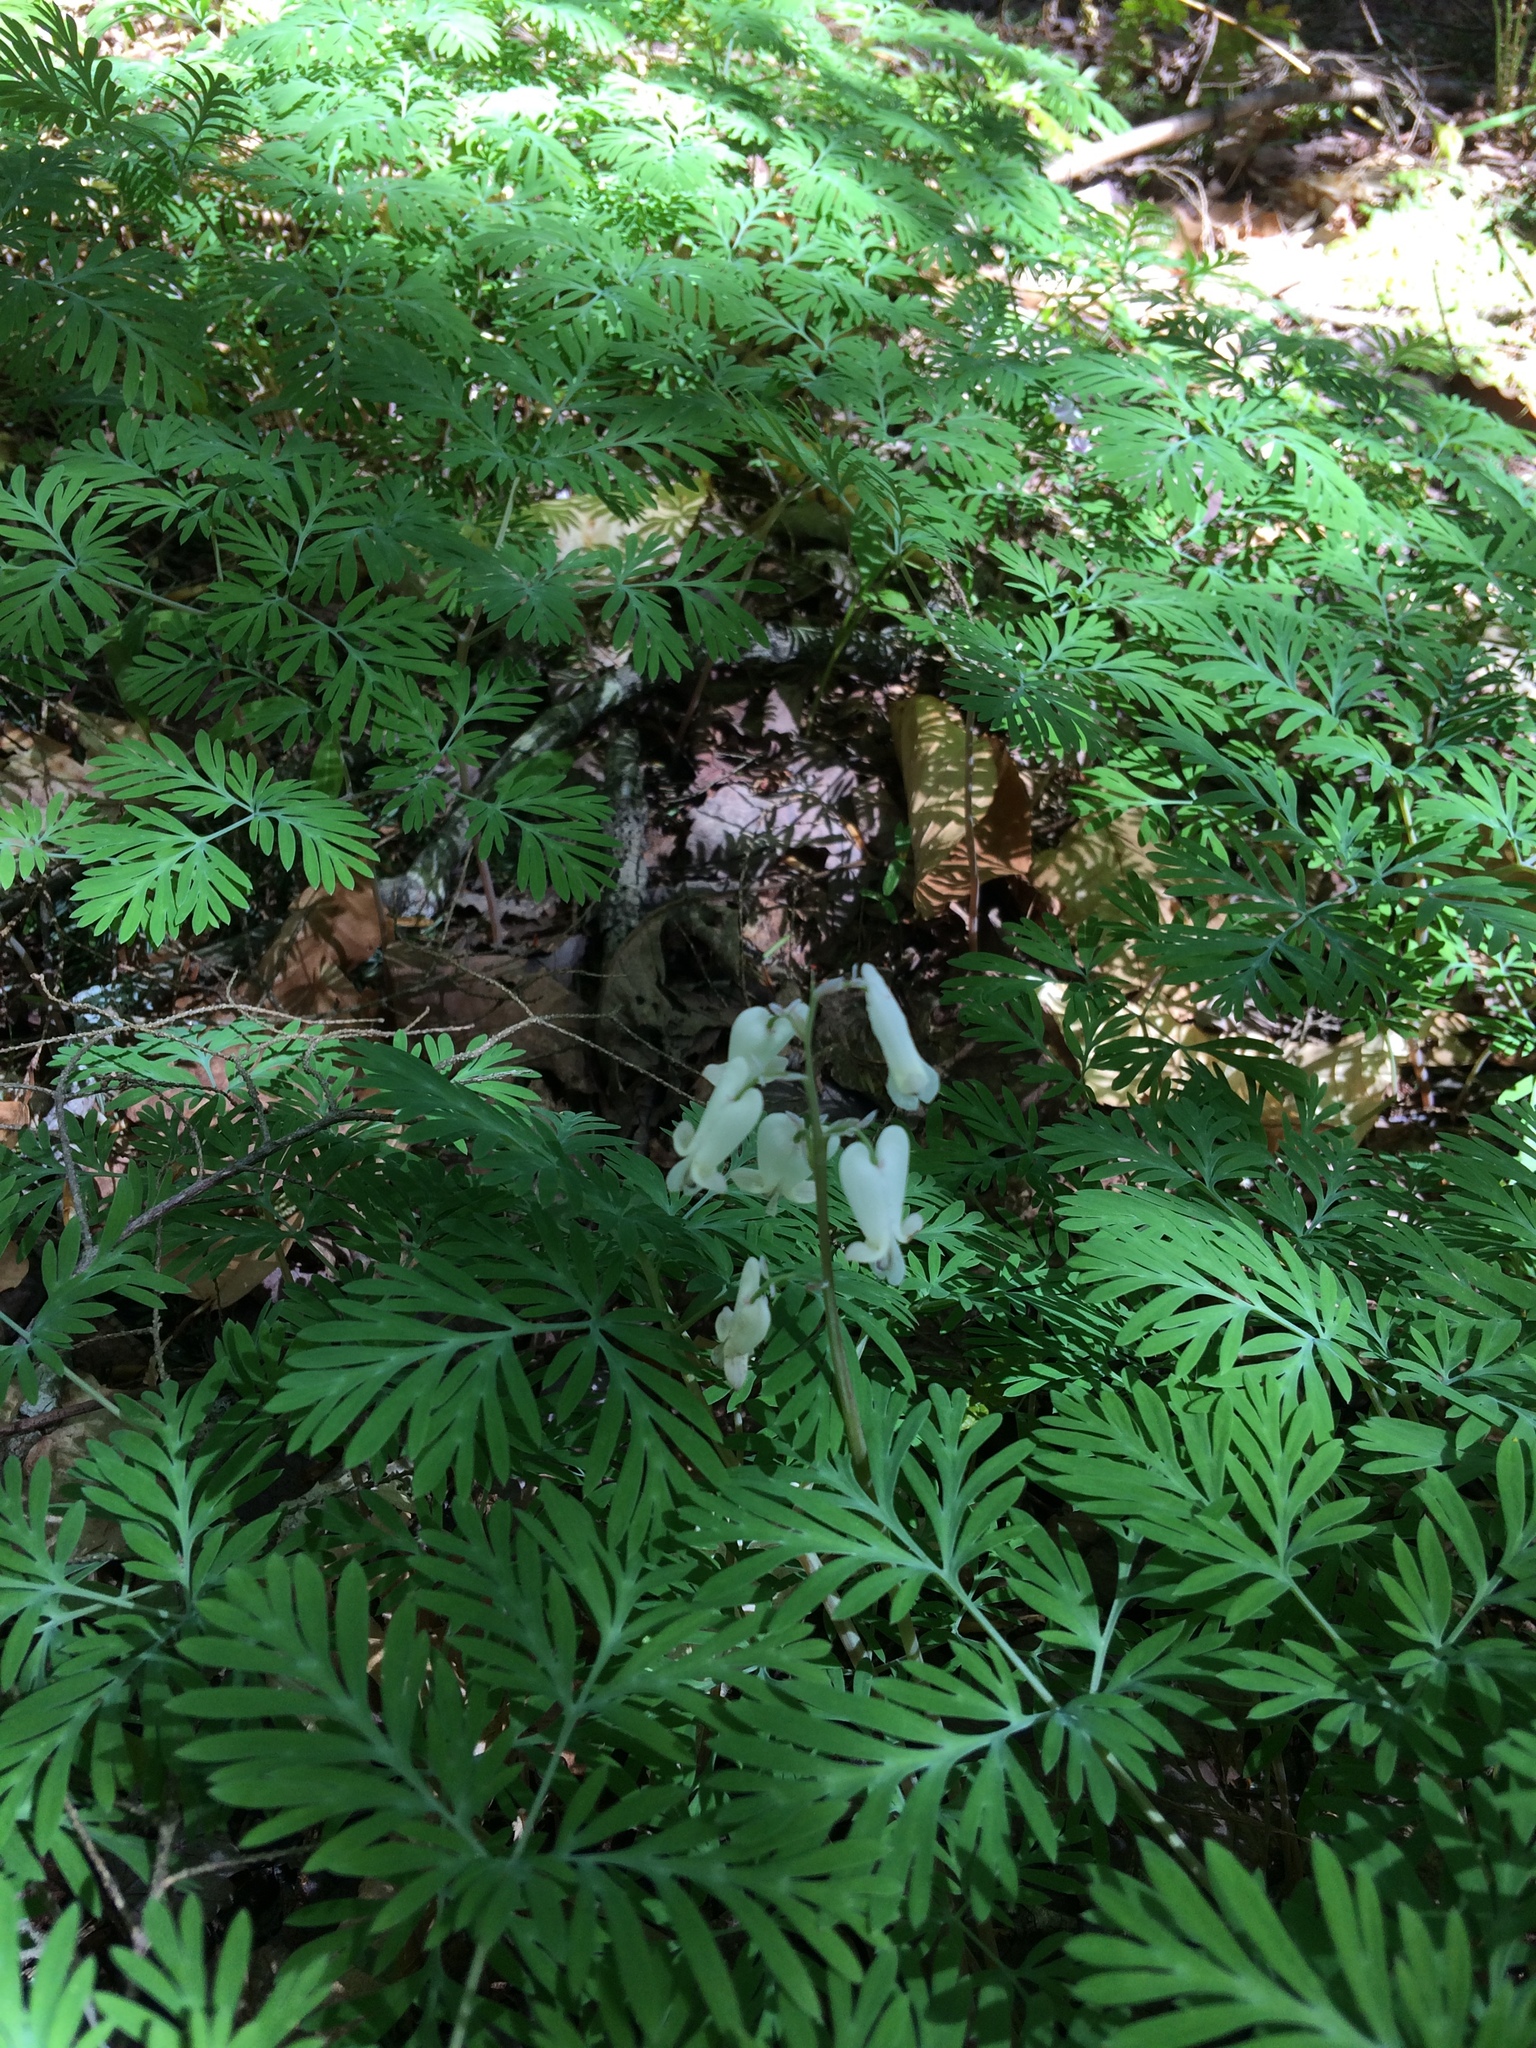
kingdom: Plantae
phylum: Tracheophyta
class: Magnoliopsida
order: Ranunculales
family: Papaveraceae
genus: Dicentra
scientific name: Dicentra canadensis
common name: Squirrel-corn
